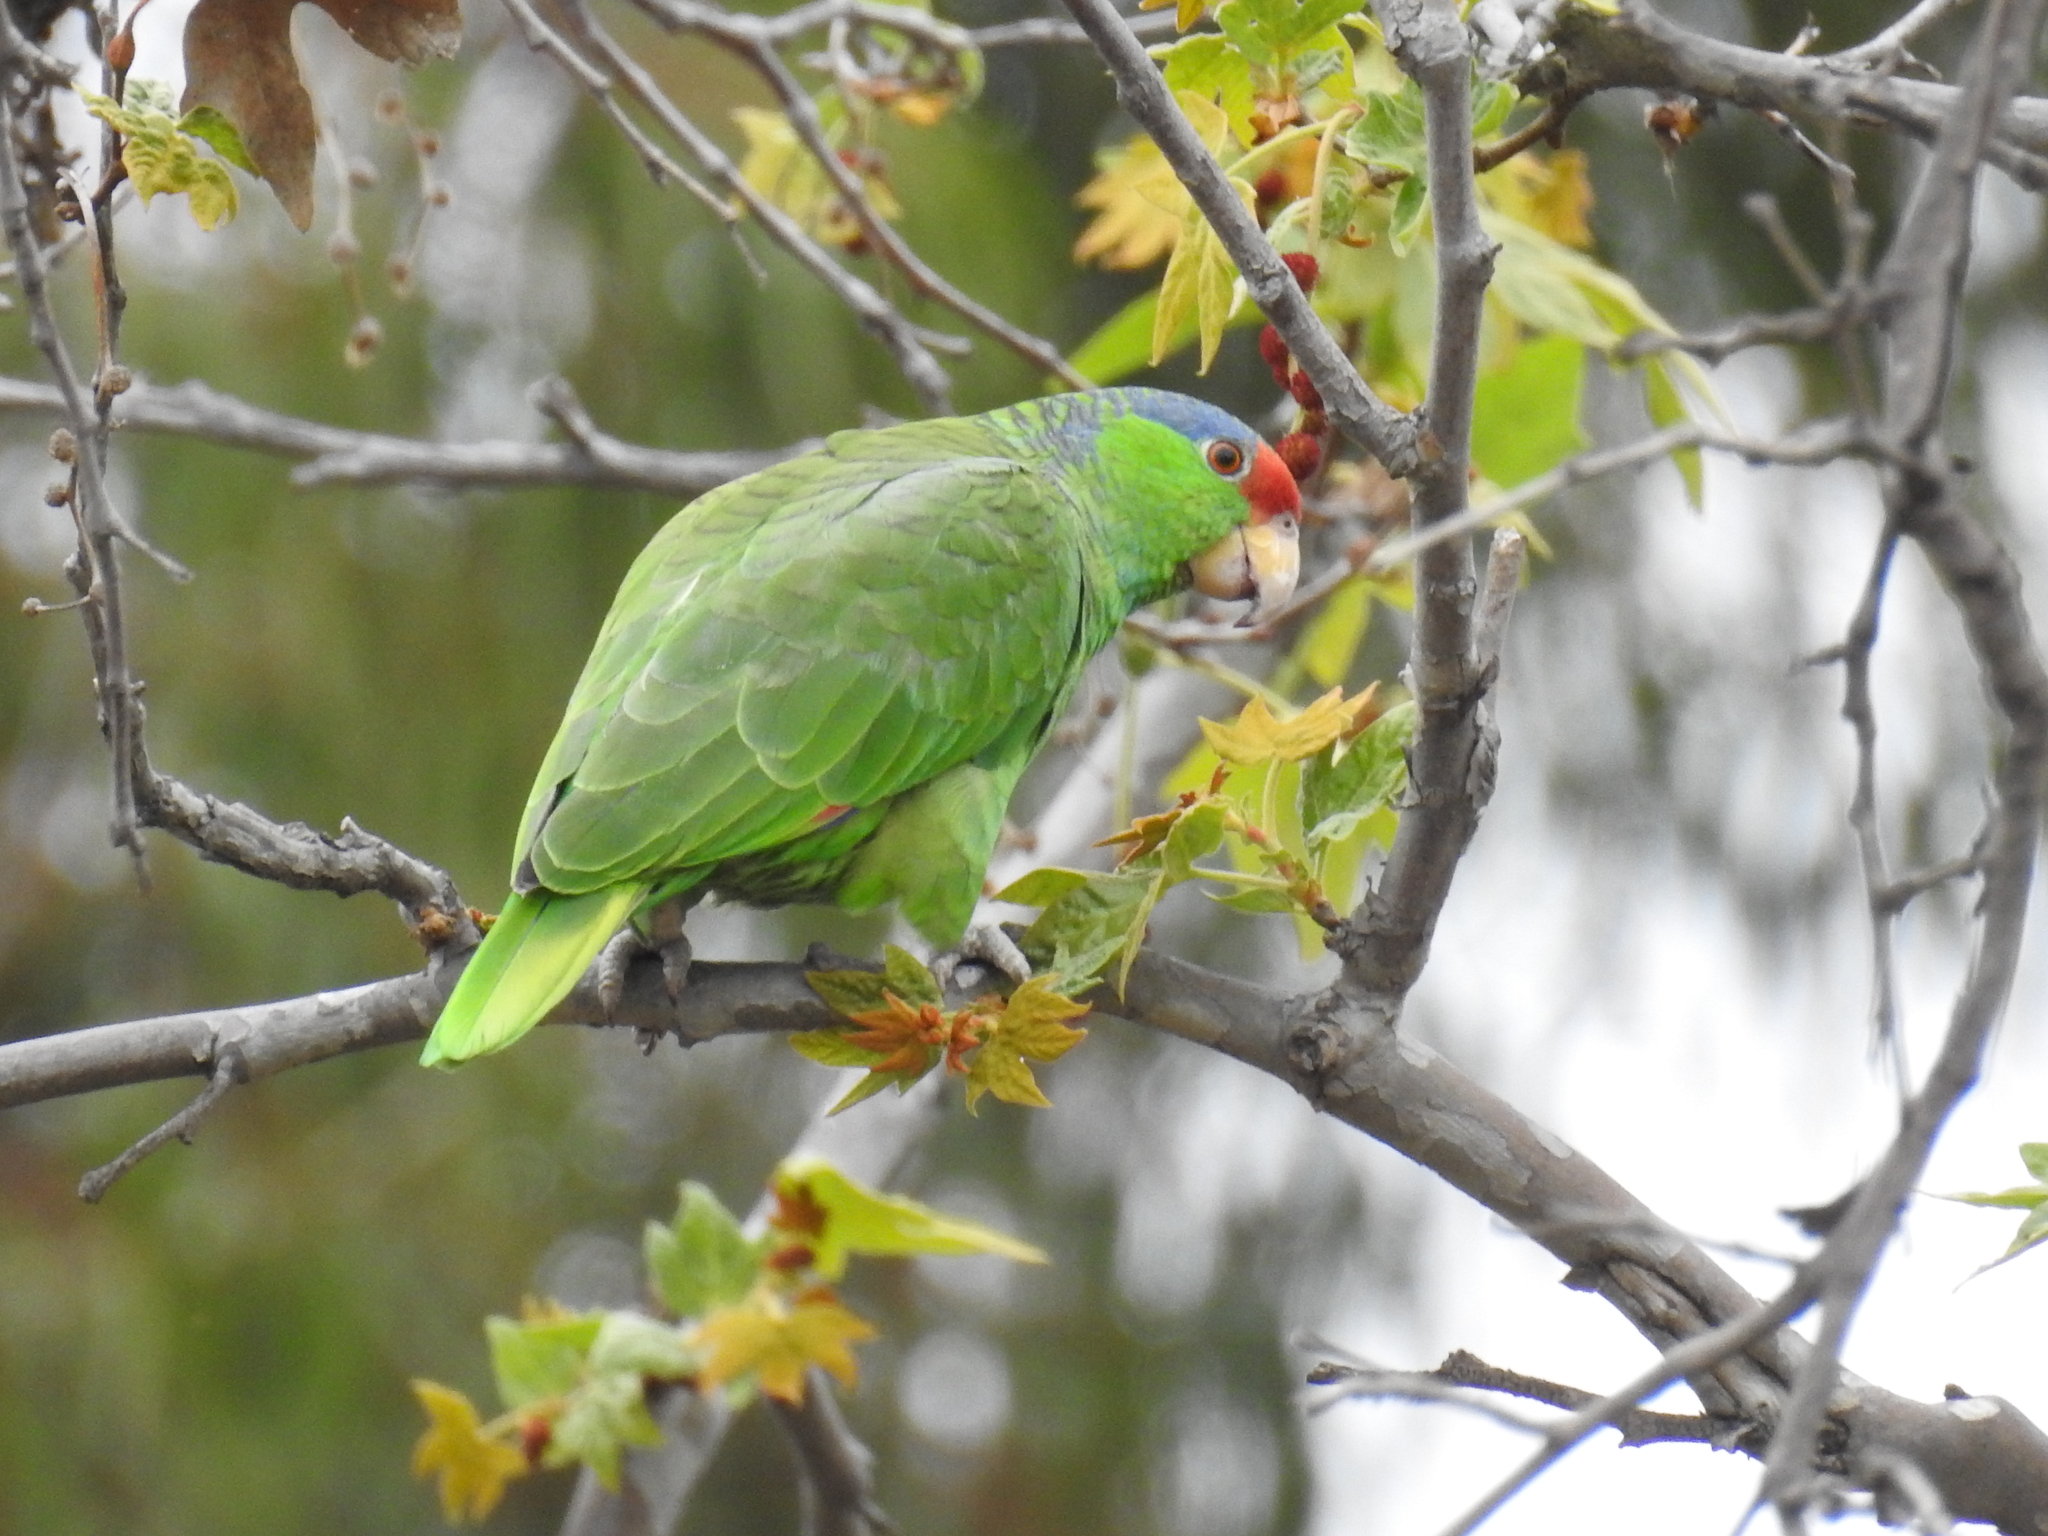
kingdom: Animalia
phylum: Chordata
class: Aves
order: Psittaciformes
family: Psittacidae
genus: Amazona
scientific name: Amazona viridigenalis
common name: Red-crowned amazon
